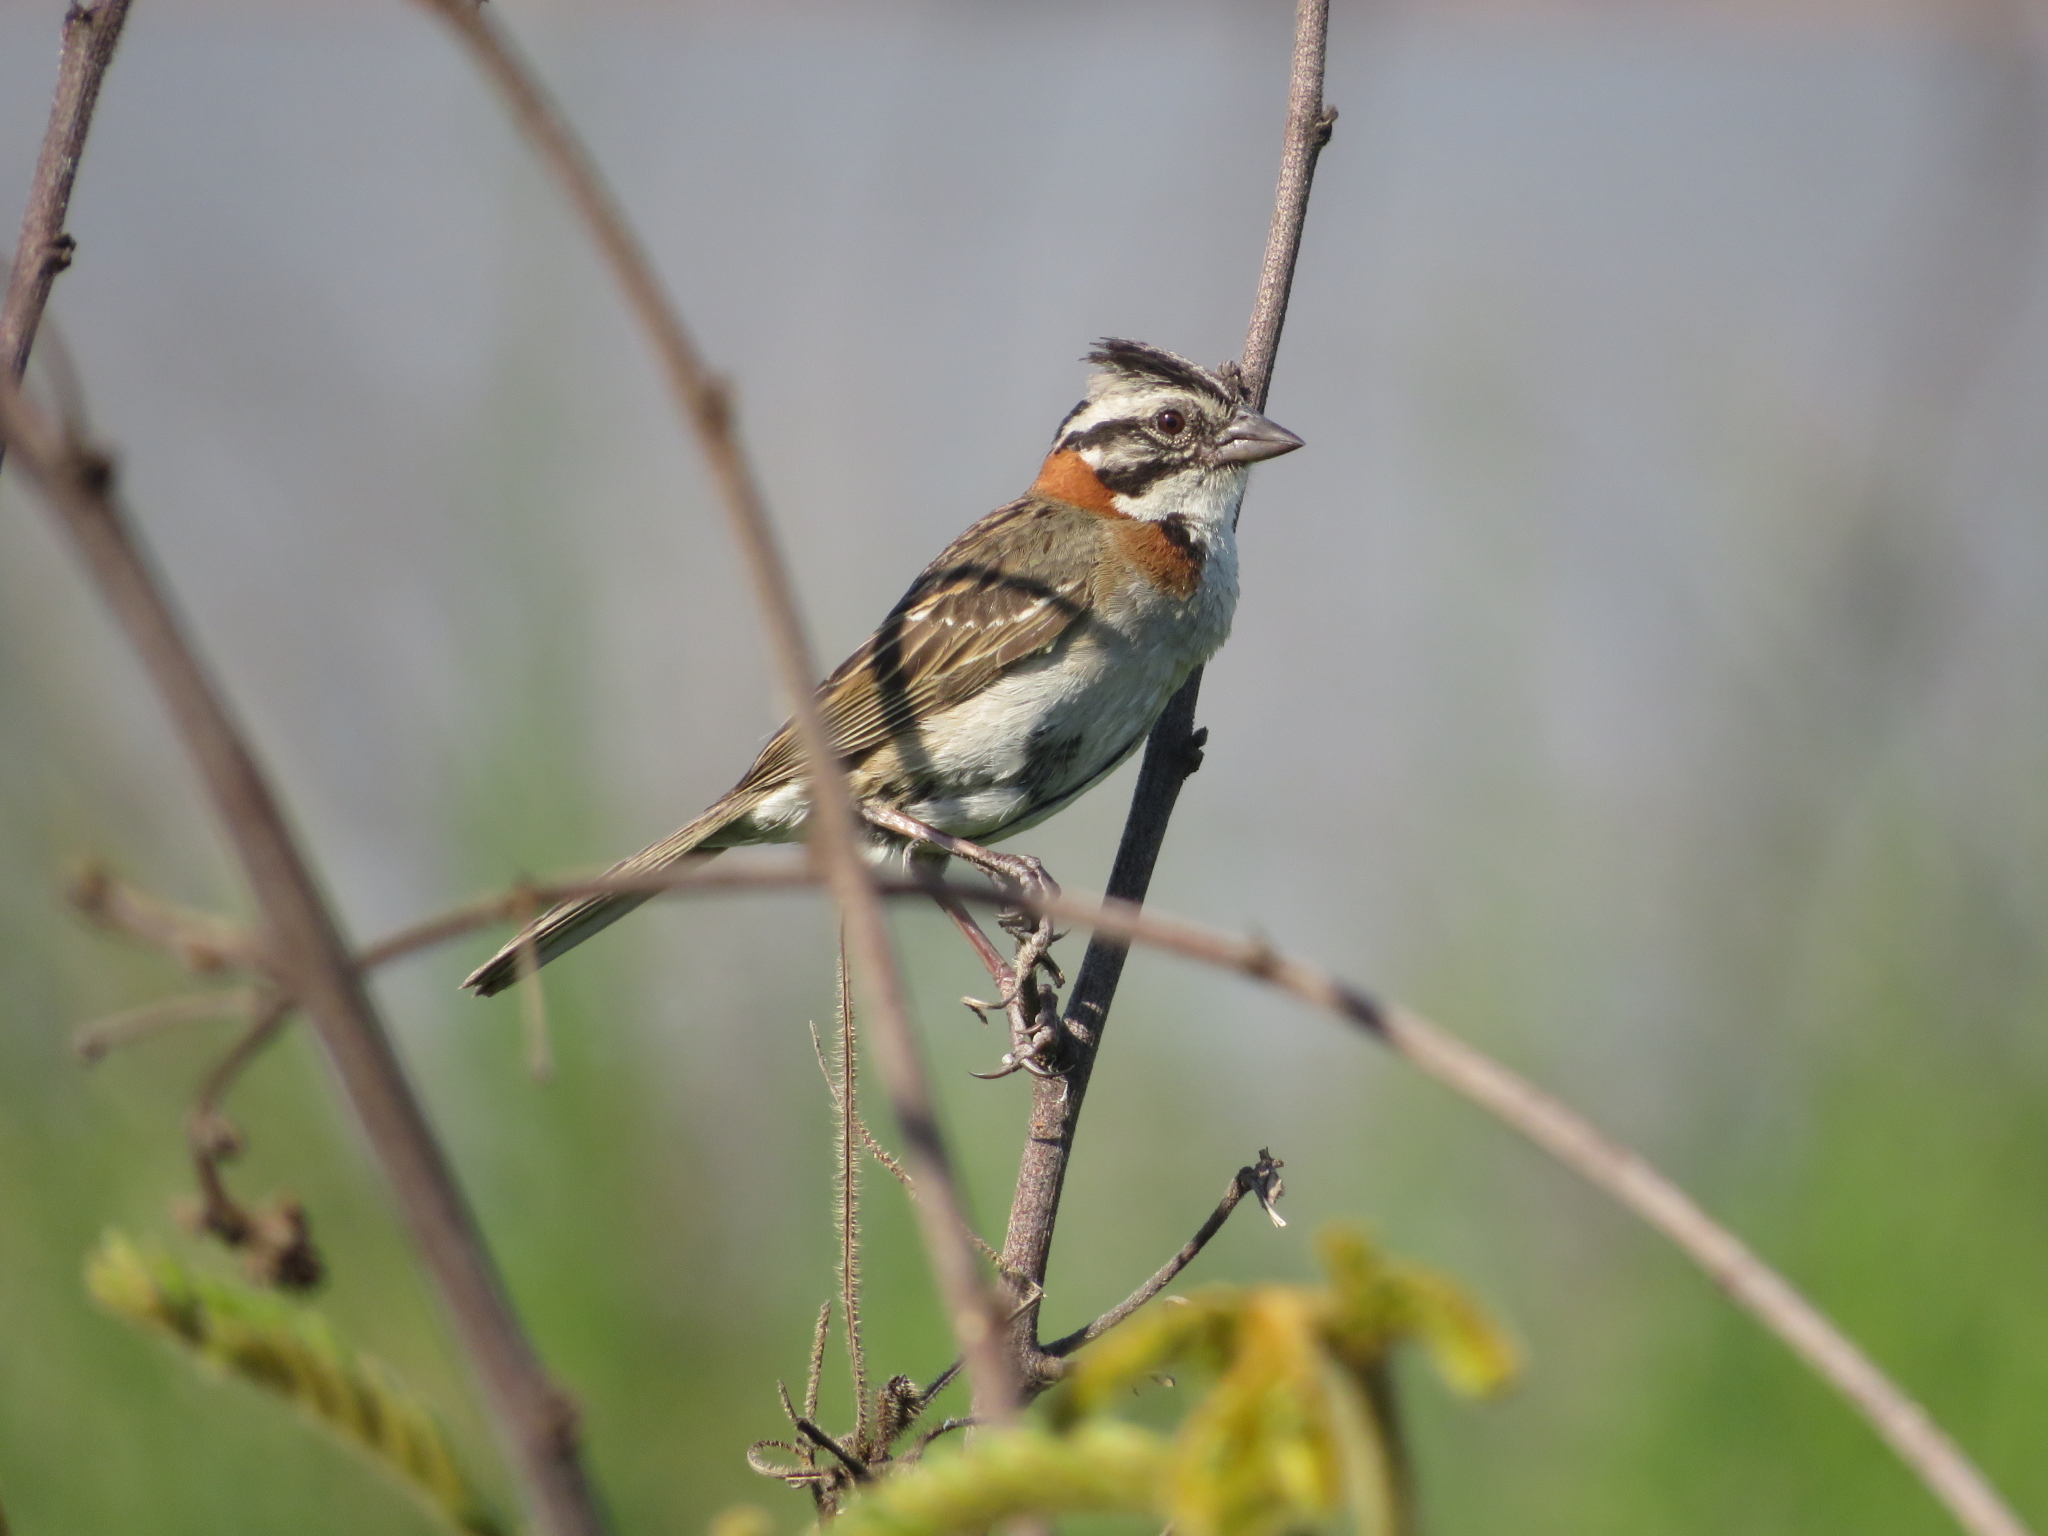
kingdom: Animalia
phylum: Chordata
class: Aves
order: Passeriformes
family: Passerellidae
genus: Zonotrichia
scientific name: Zonotrichia capensis
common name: Rufous-collared sparrow
